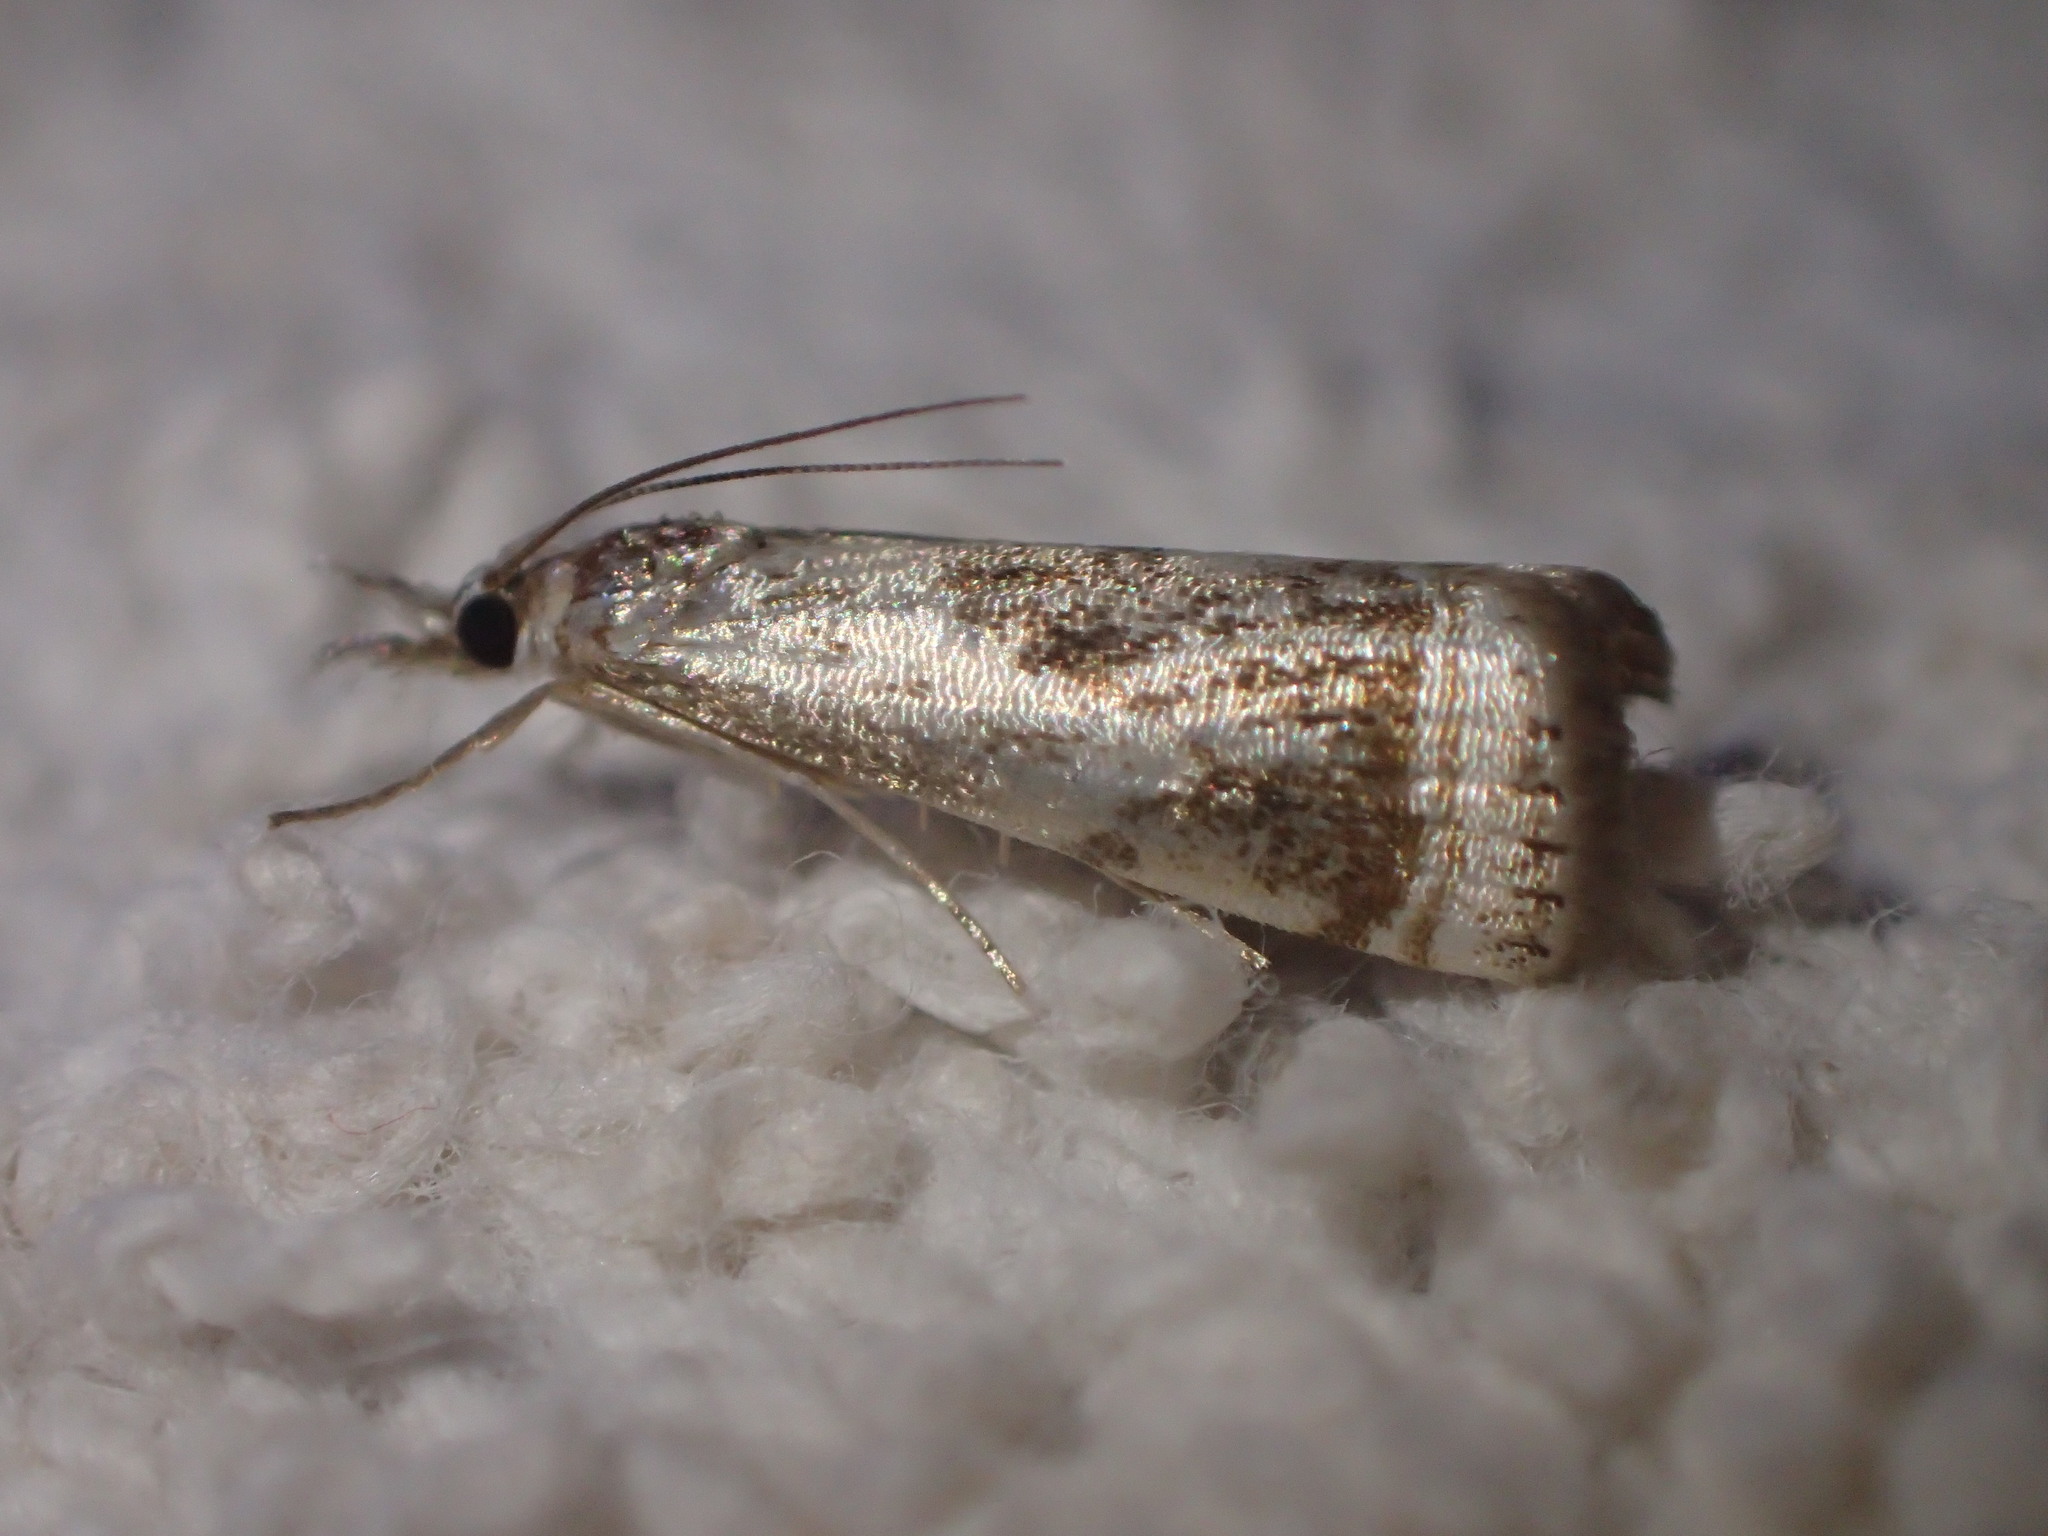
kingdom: Animalia
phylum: Arthropoda
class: Insecta
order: Lepidoptera
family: Crambidae
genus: Microcrambus
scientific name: Microcrambus elegans
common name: Elegant grass-veneer
